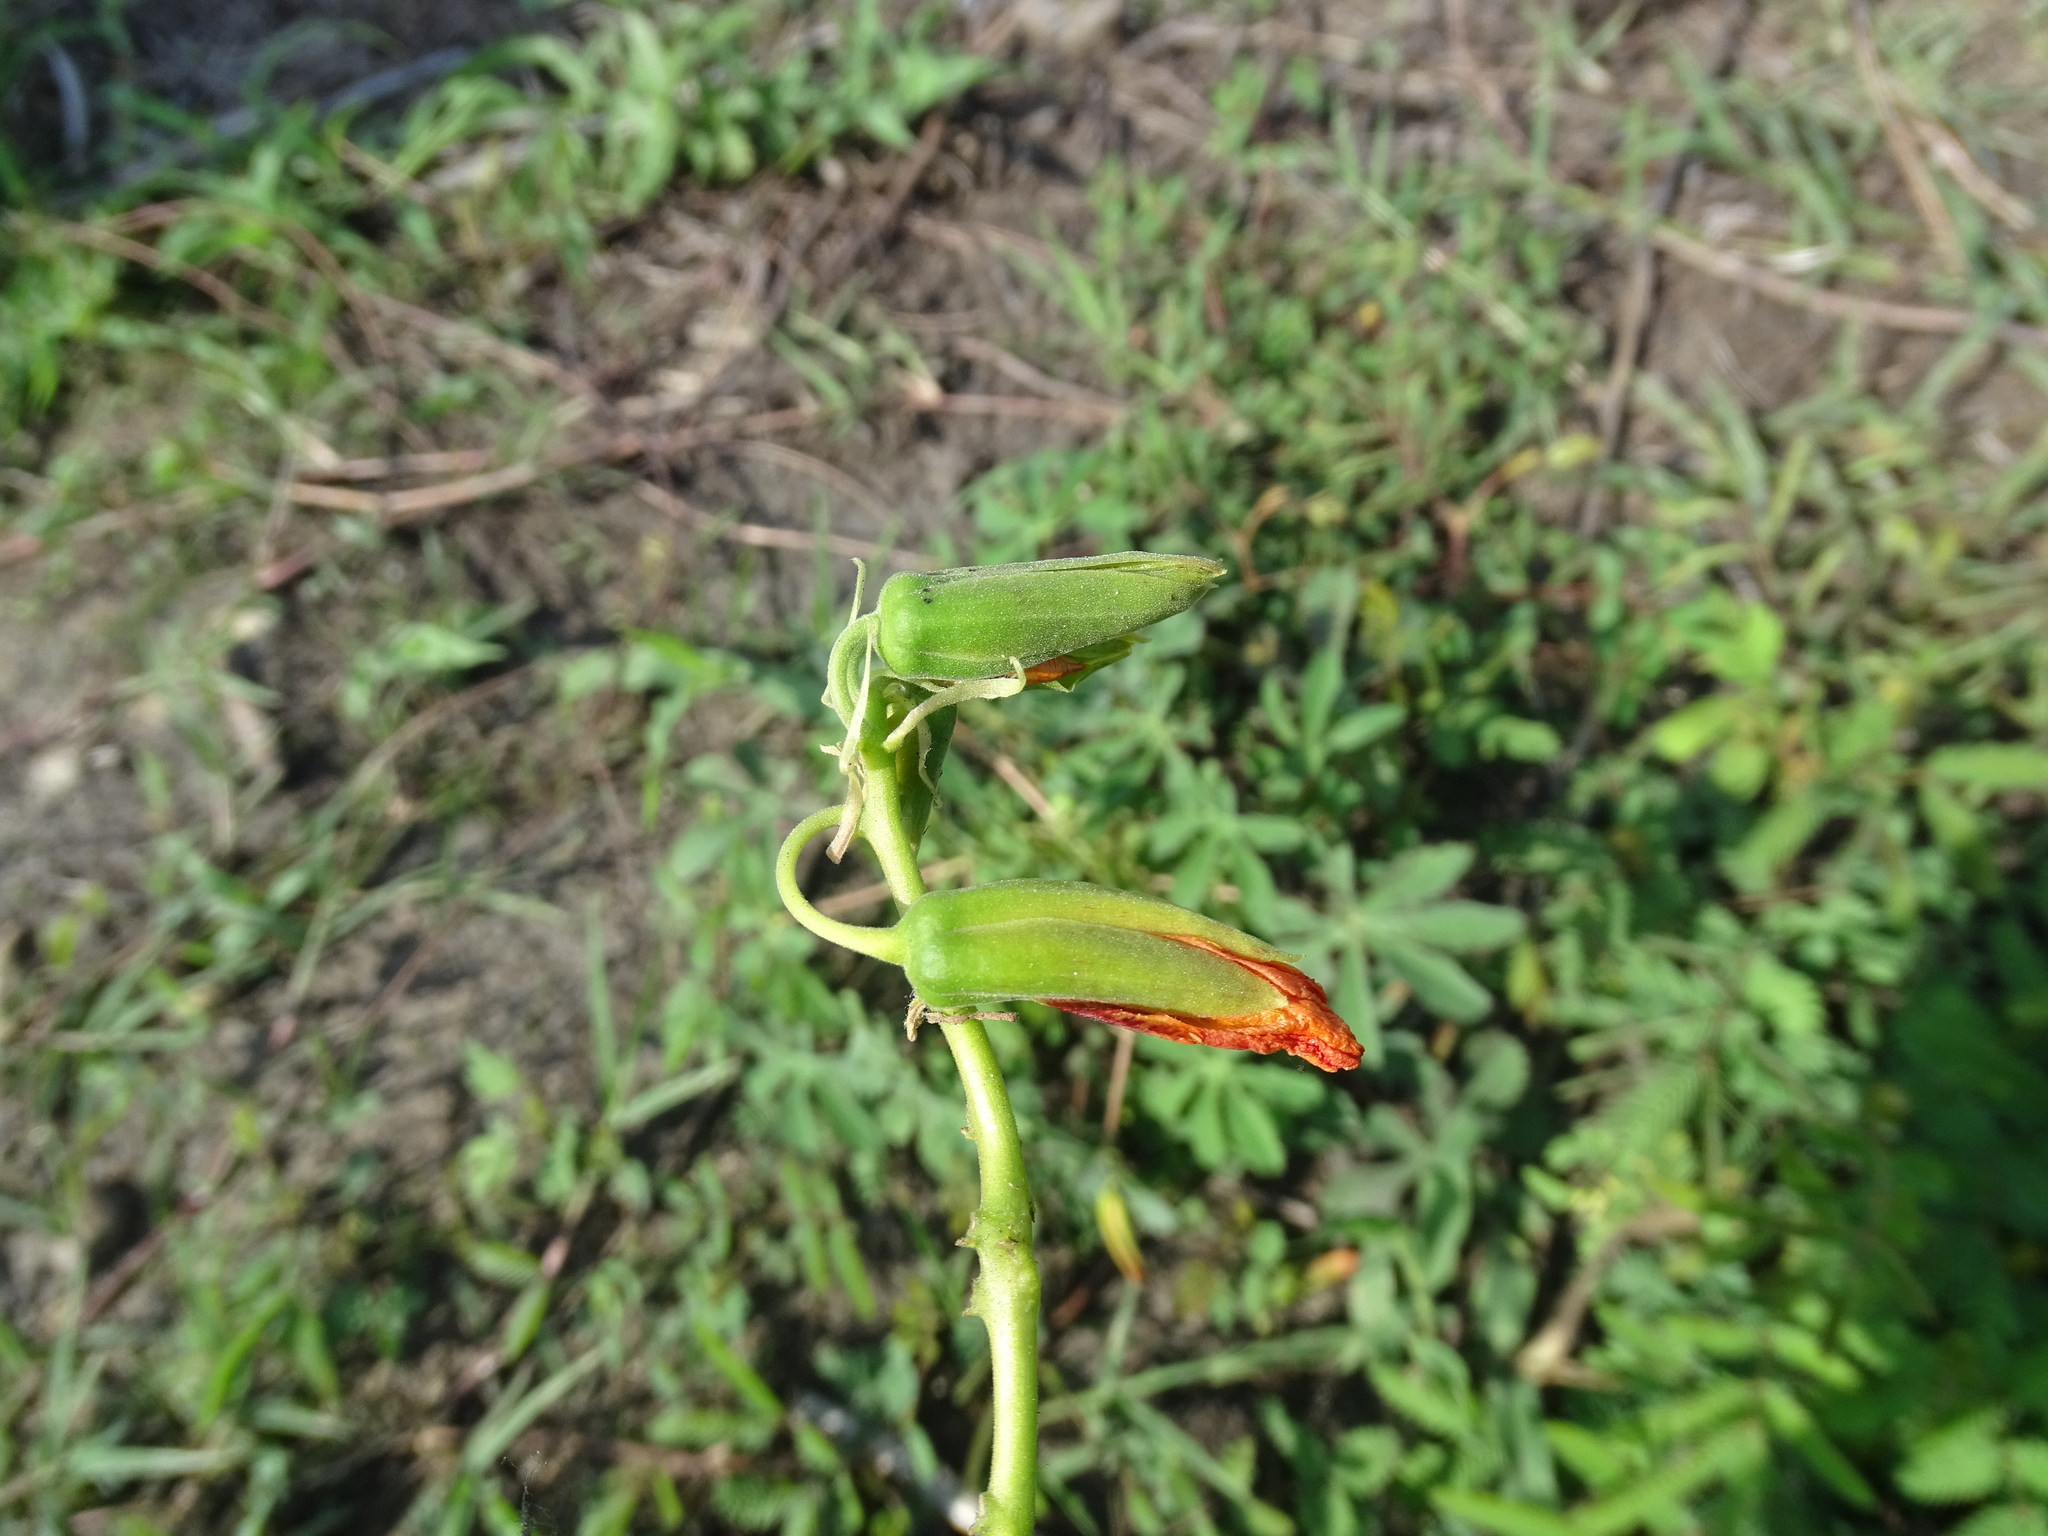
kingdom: Plantae
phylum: Tracheophyta
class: Magnoliopsida
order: Malvales
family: Cochlospermaceae
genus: Cochlospermum
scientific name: Cochlospermum wrightii
